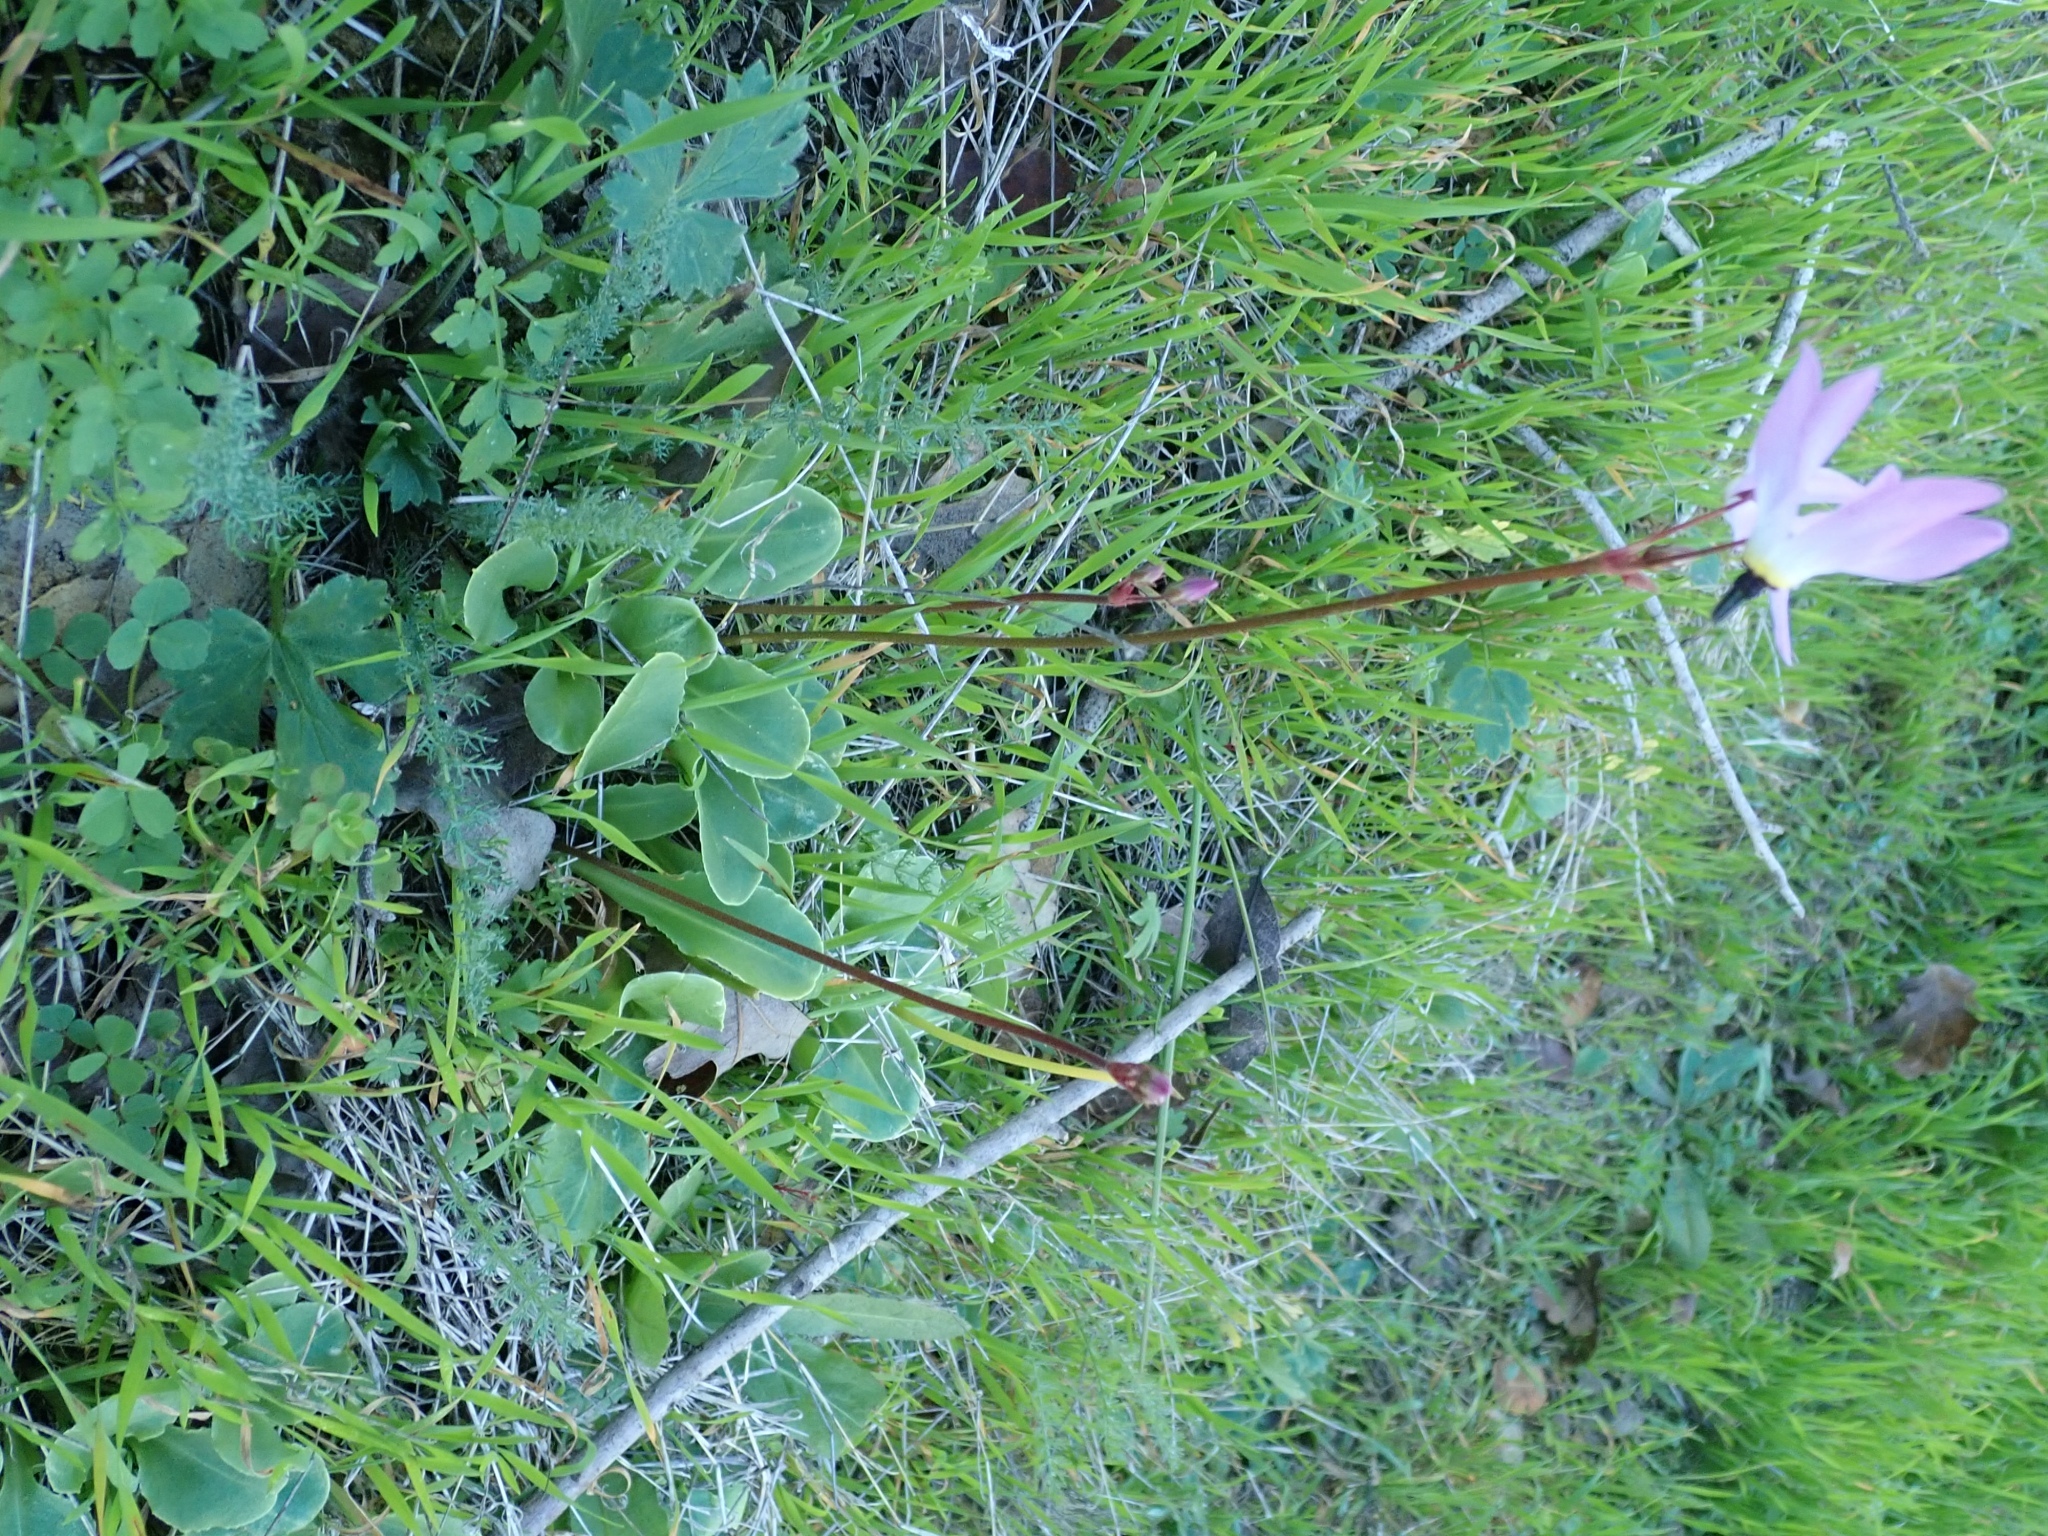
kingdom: Plantae
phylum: Tracheophyta
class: Magnoliopsida
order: Ericales
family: Primulaceae
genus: Dodecatheon
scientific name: Dodecatheon hendersonii
